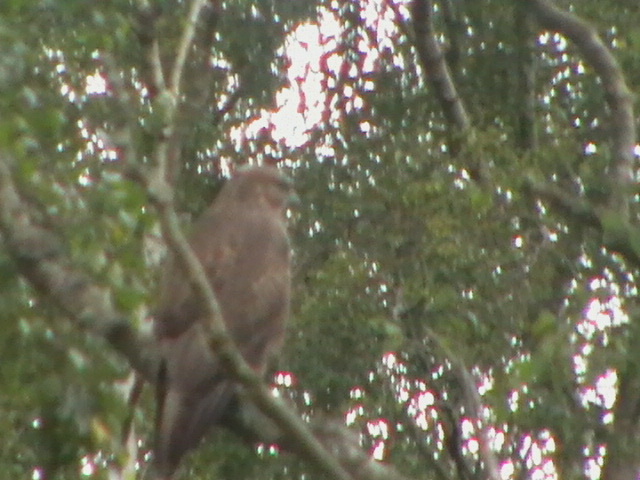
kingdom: Animalia
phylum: Chordata
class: Aves
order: Accipitriformes
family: Accipitridae
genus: Buteo
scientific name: Buteo buteo
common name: Common buzzard
